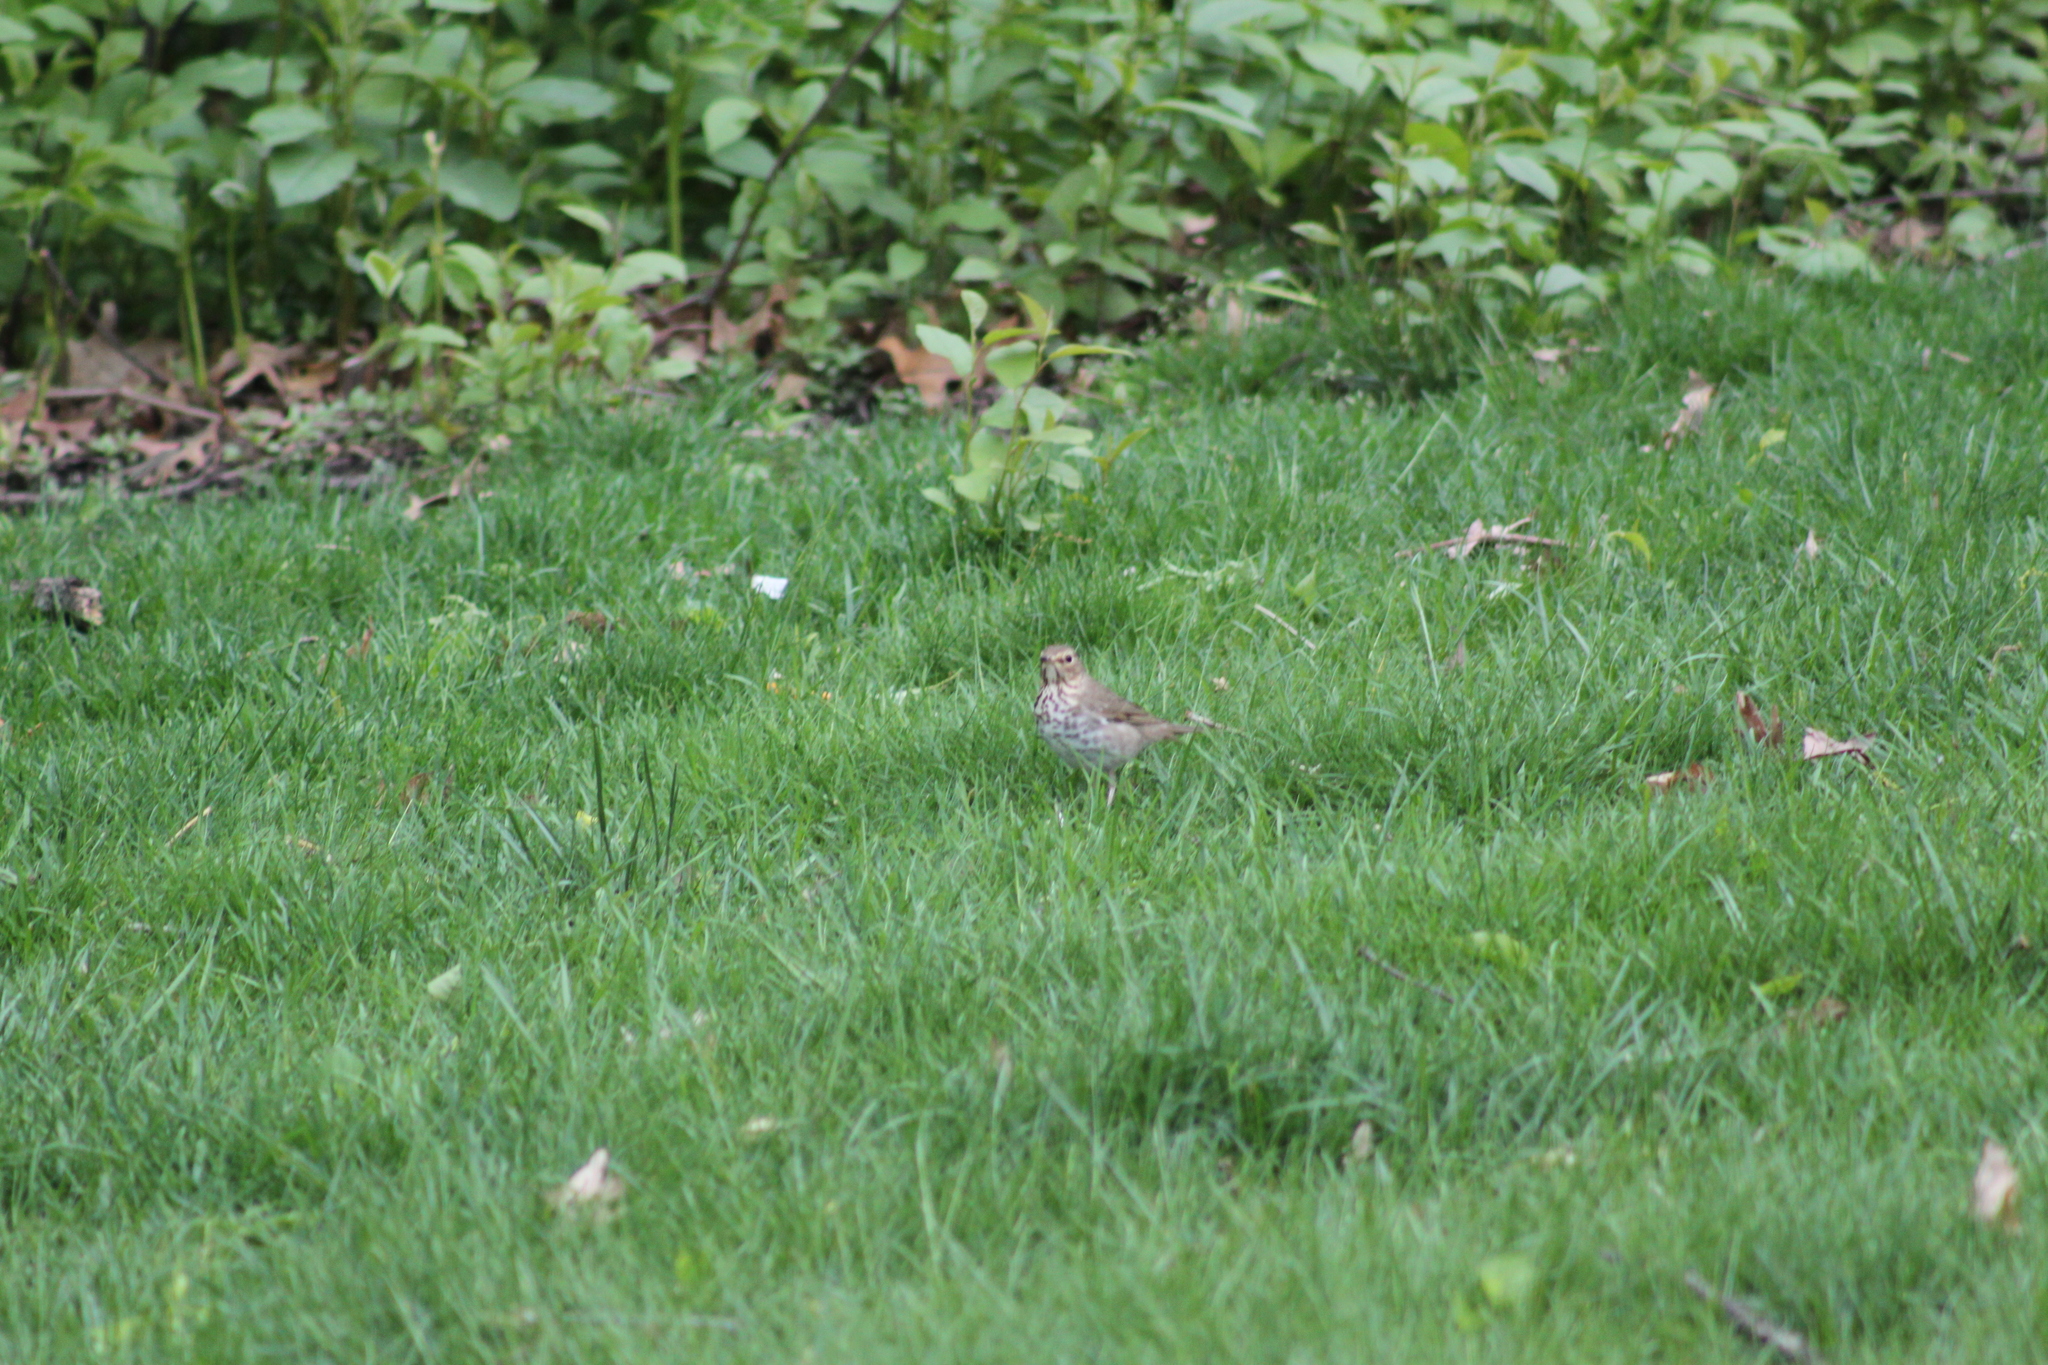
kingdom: Animalia
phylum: Chordata
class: Aves
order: Passeriformes
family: Turdidae
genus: Catharus
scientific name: Catharus ustulatus
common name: Swainson's thrush
